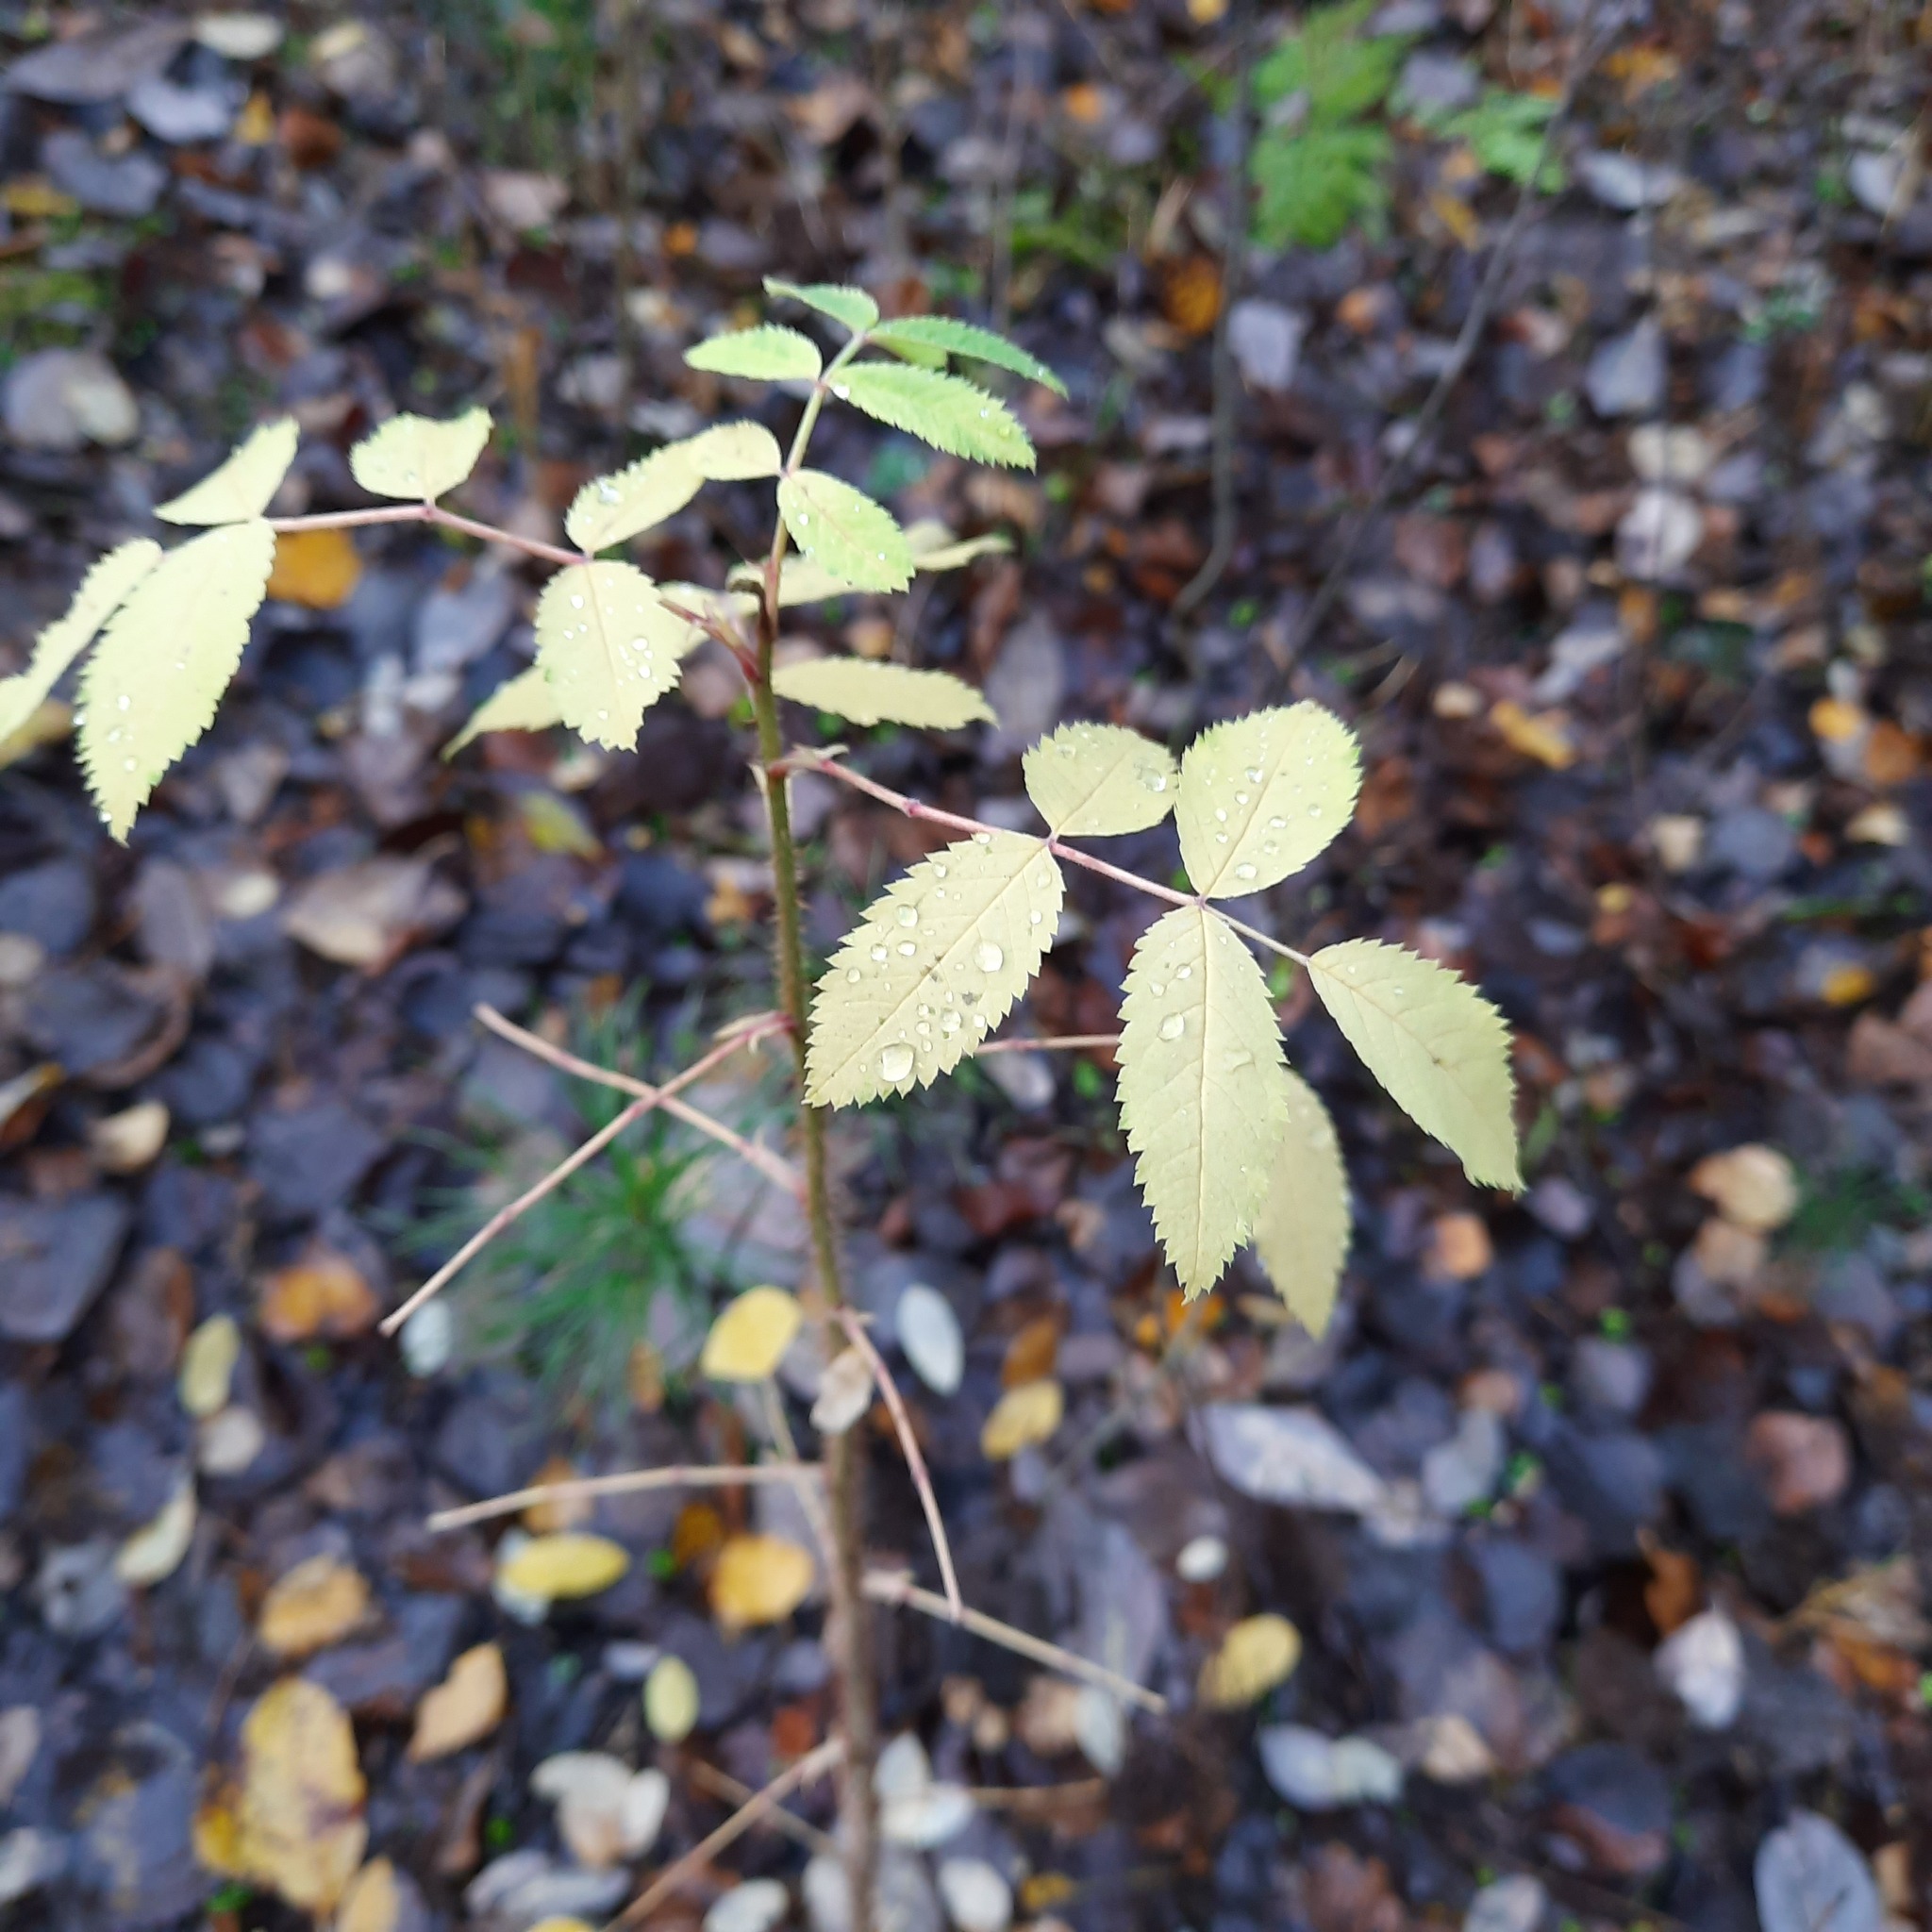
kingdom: Plantae
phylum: Tracheophyta
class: Magnoliopsida
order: Rosales
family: Rosaceae
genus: Rosa
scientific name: Rosa acicularis
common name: Prickly rose
